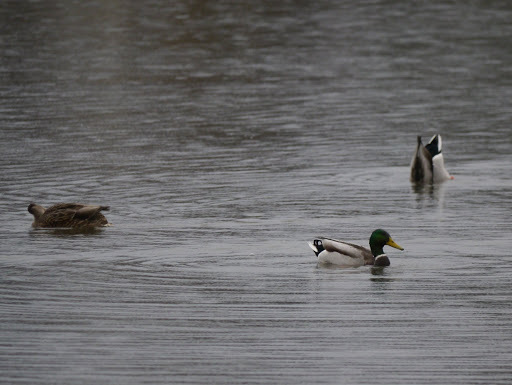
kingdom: Animalia
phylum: Chordata
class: Aves
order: Anseriformes
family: Anatidae
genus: Anas
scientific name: Anas platyrhynchos
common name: Mallard
